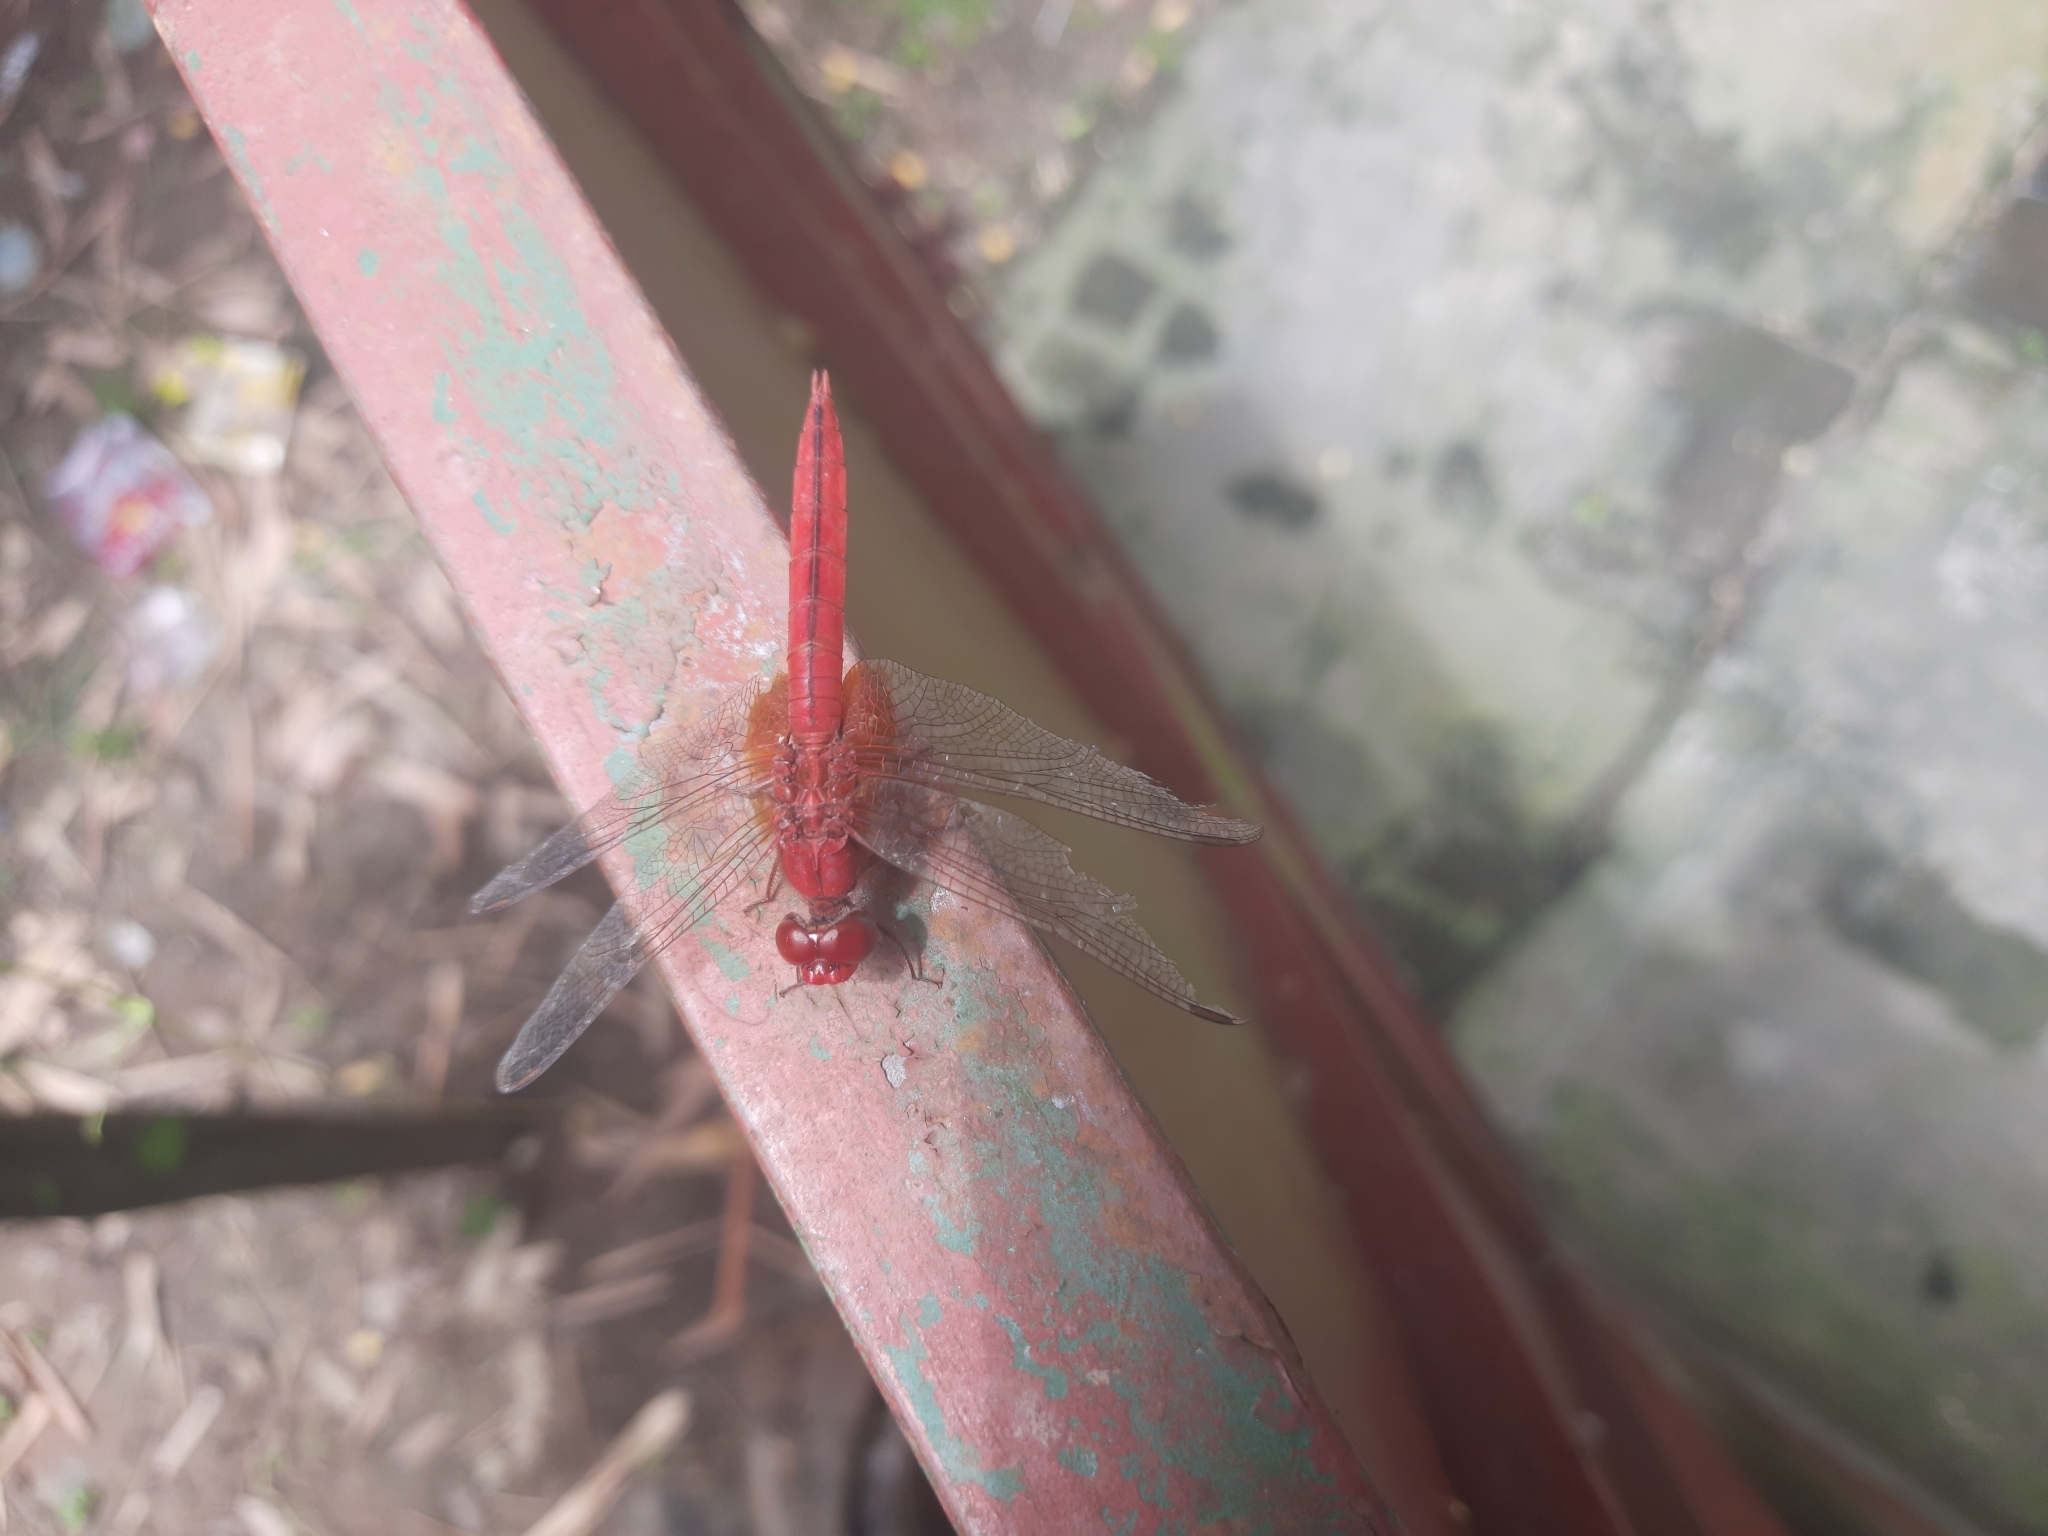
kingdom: Animalia
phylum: Arthropoda
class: Insecta
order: Odonata
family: Libellulidae
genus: Crocothemis
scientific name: Crocothemis servilia
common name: Scarlet skimmer
